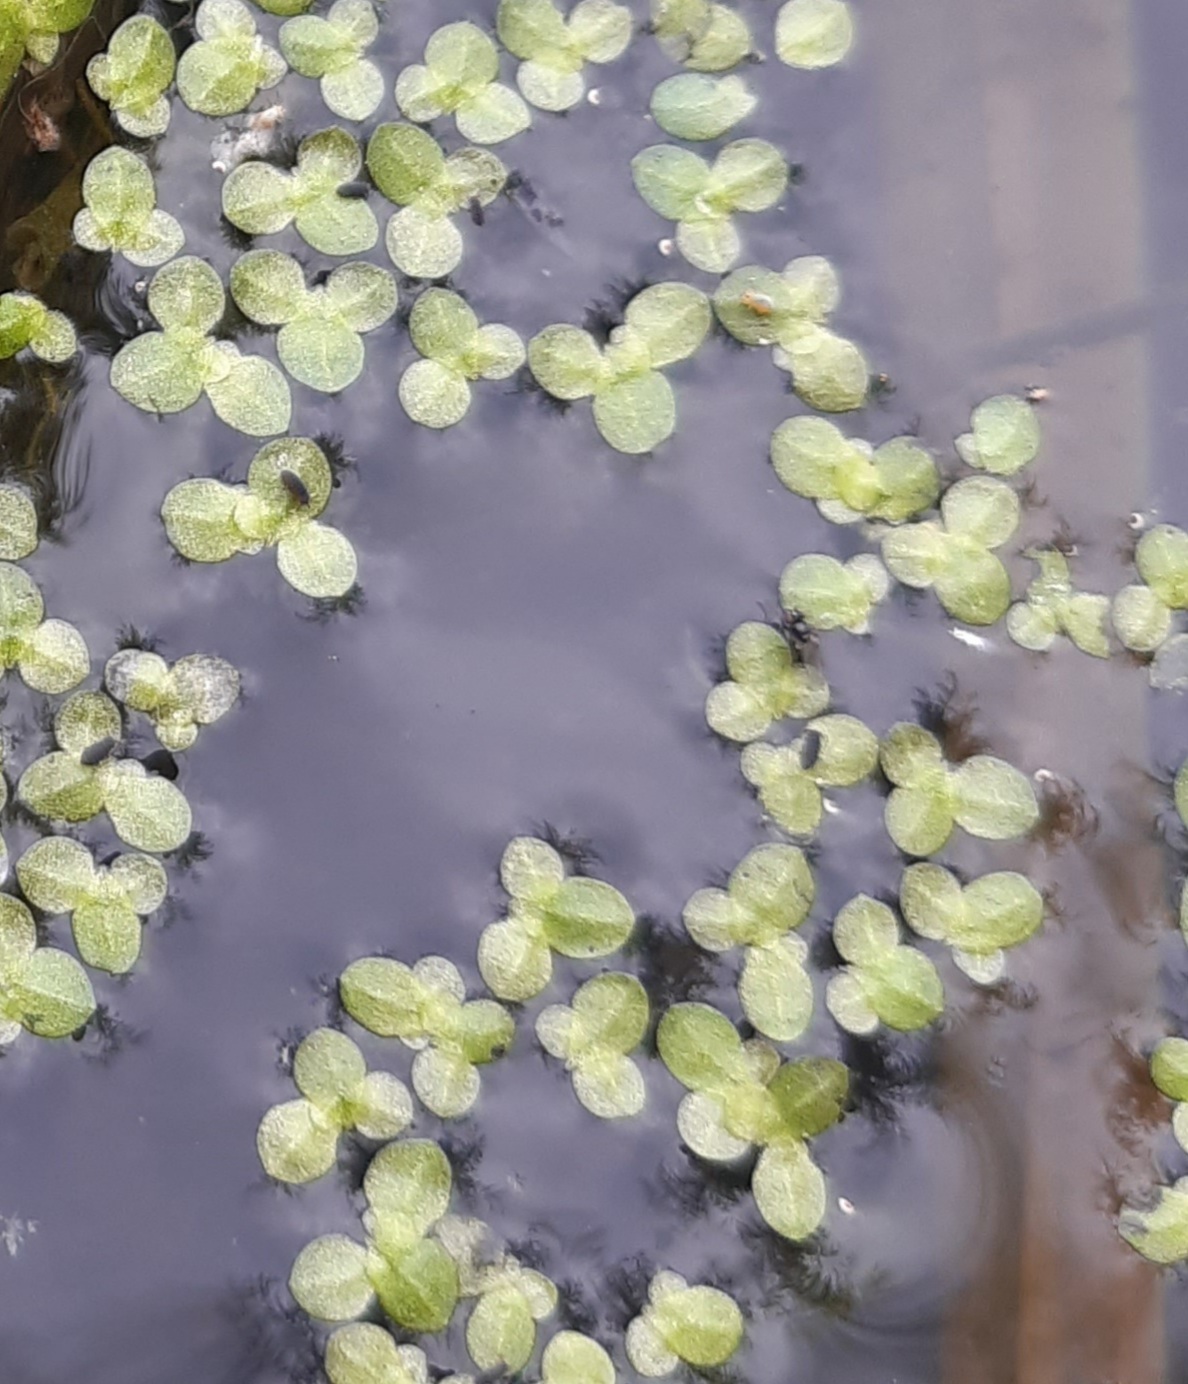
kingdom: Plantae
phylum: Tracheophyta
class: Liliopsida
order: Alismatales
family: Araceae
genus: Lemna
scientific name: Lemna minor
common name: Common duckweed
